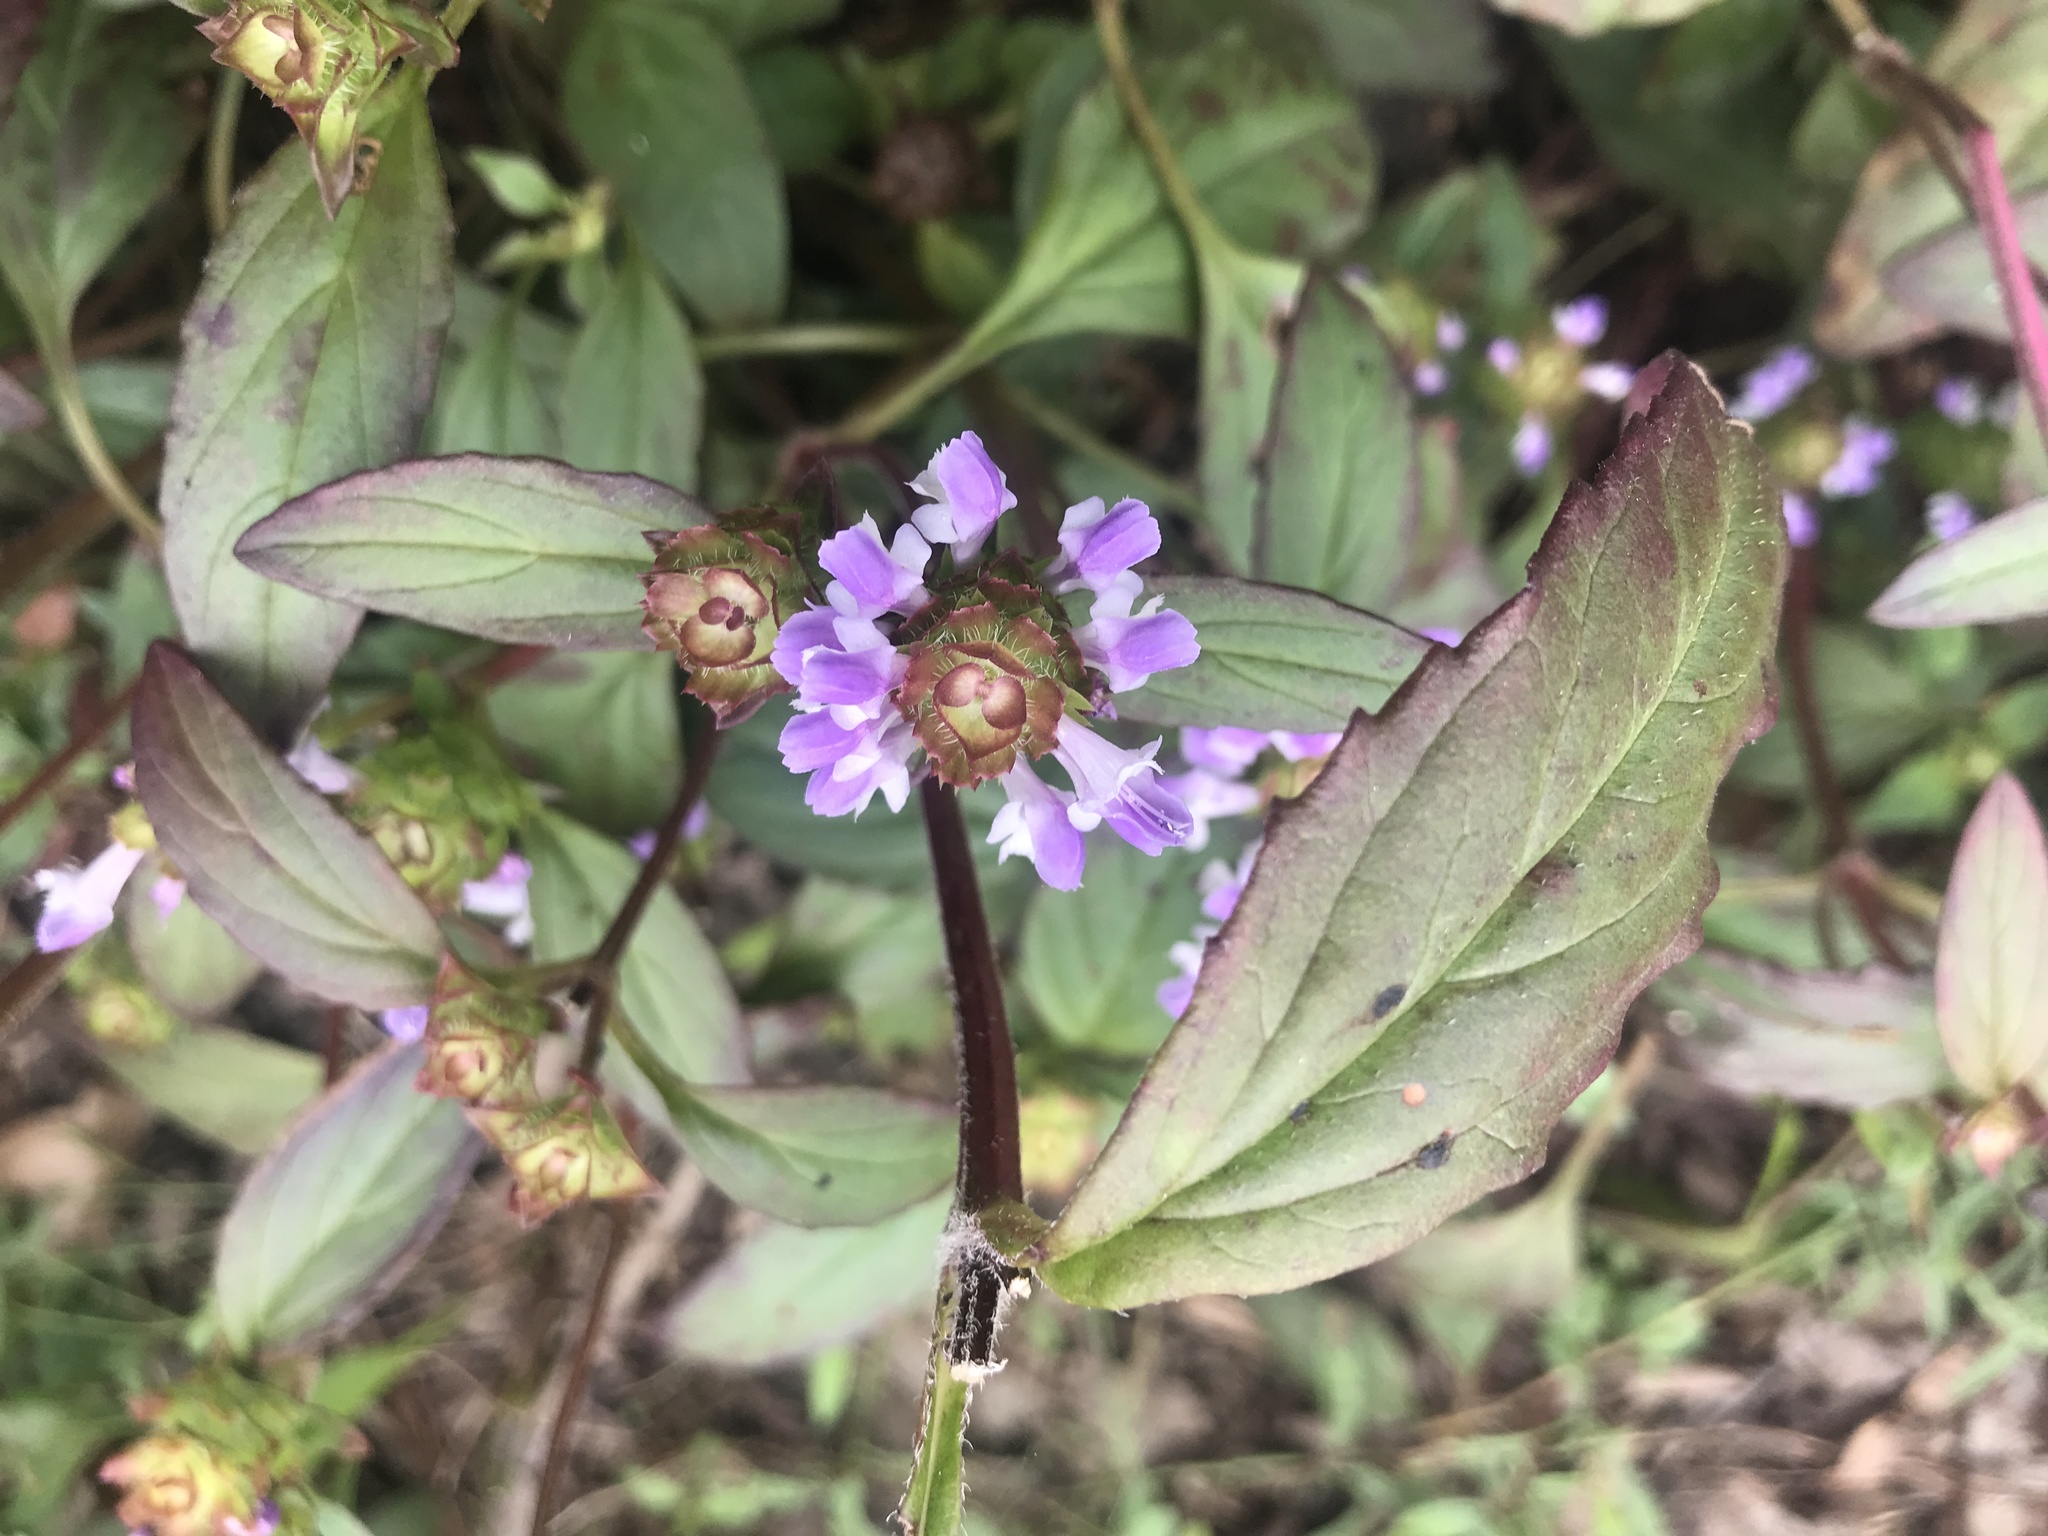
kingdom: Plantae
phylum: Tracheophyta
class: Magnoliopsida
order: Lamiales
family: Lamiaceae
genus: Prunella
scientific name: Prunella vulgaris
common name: Heal-all
